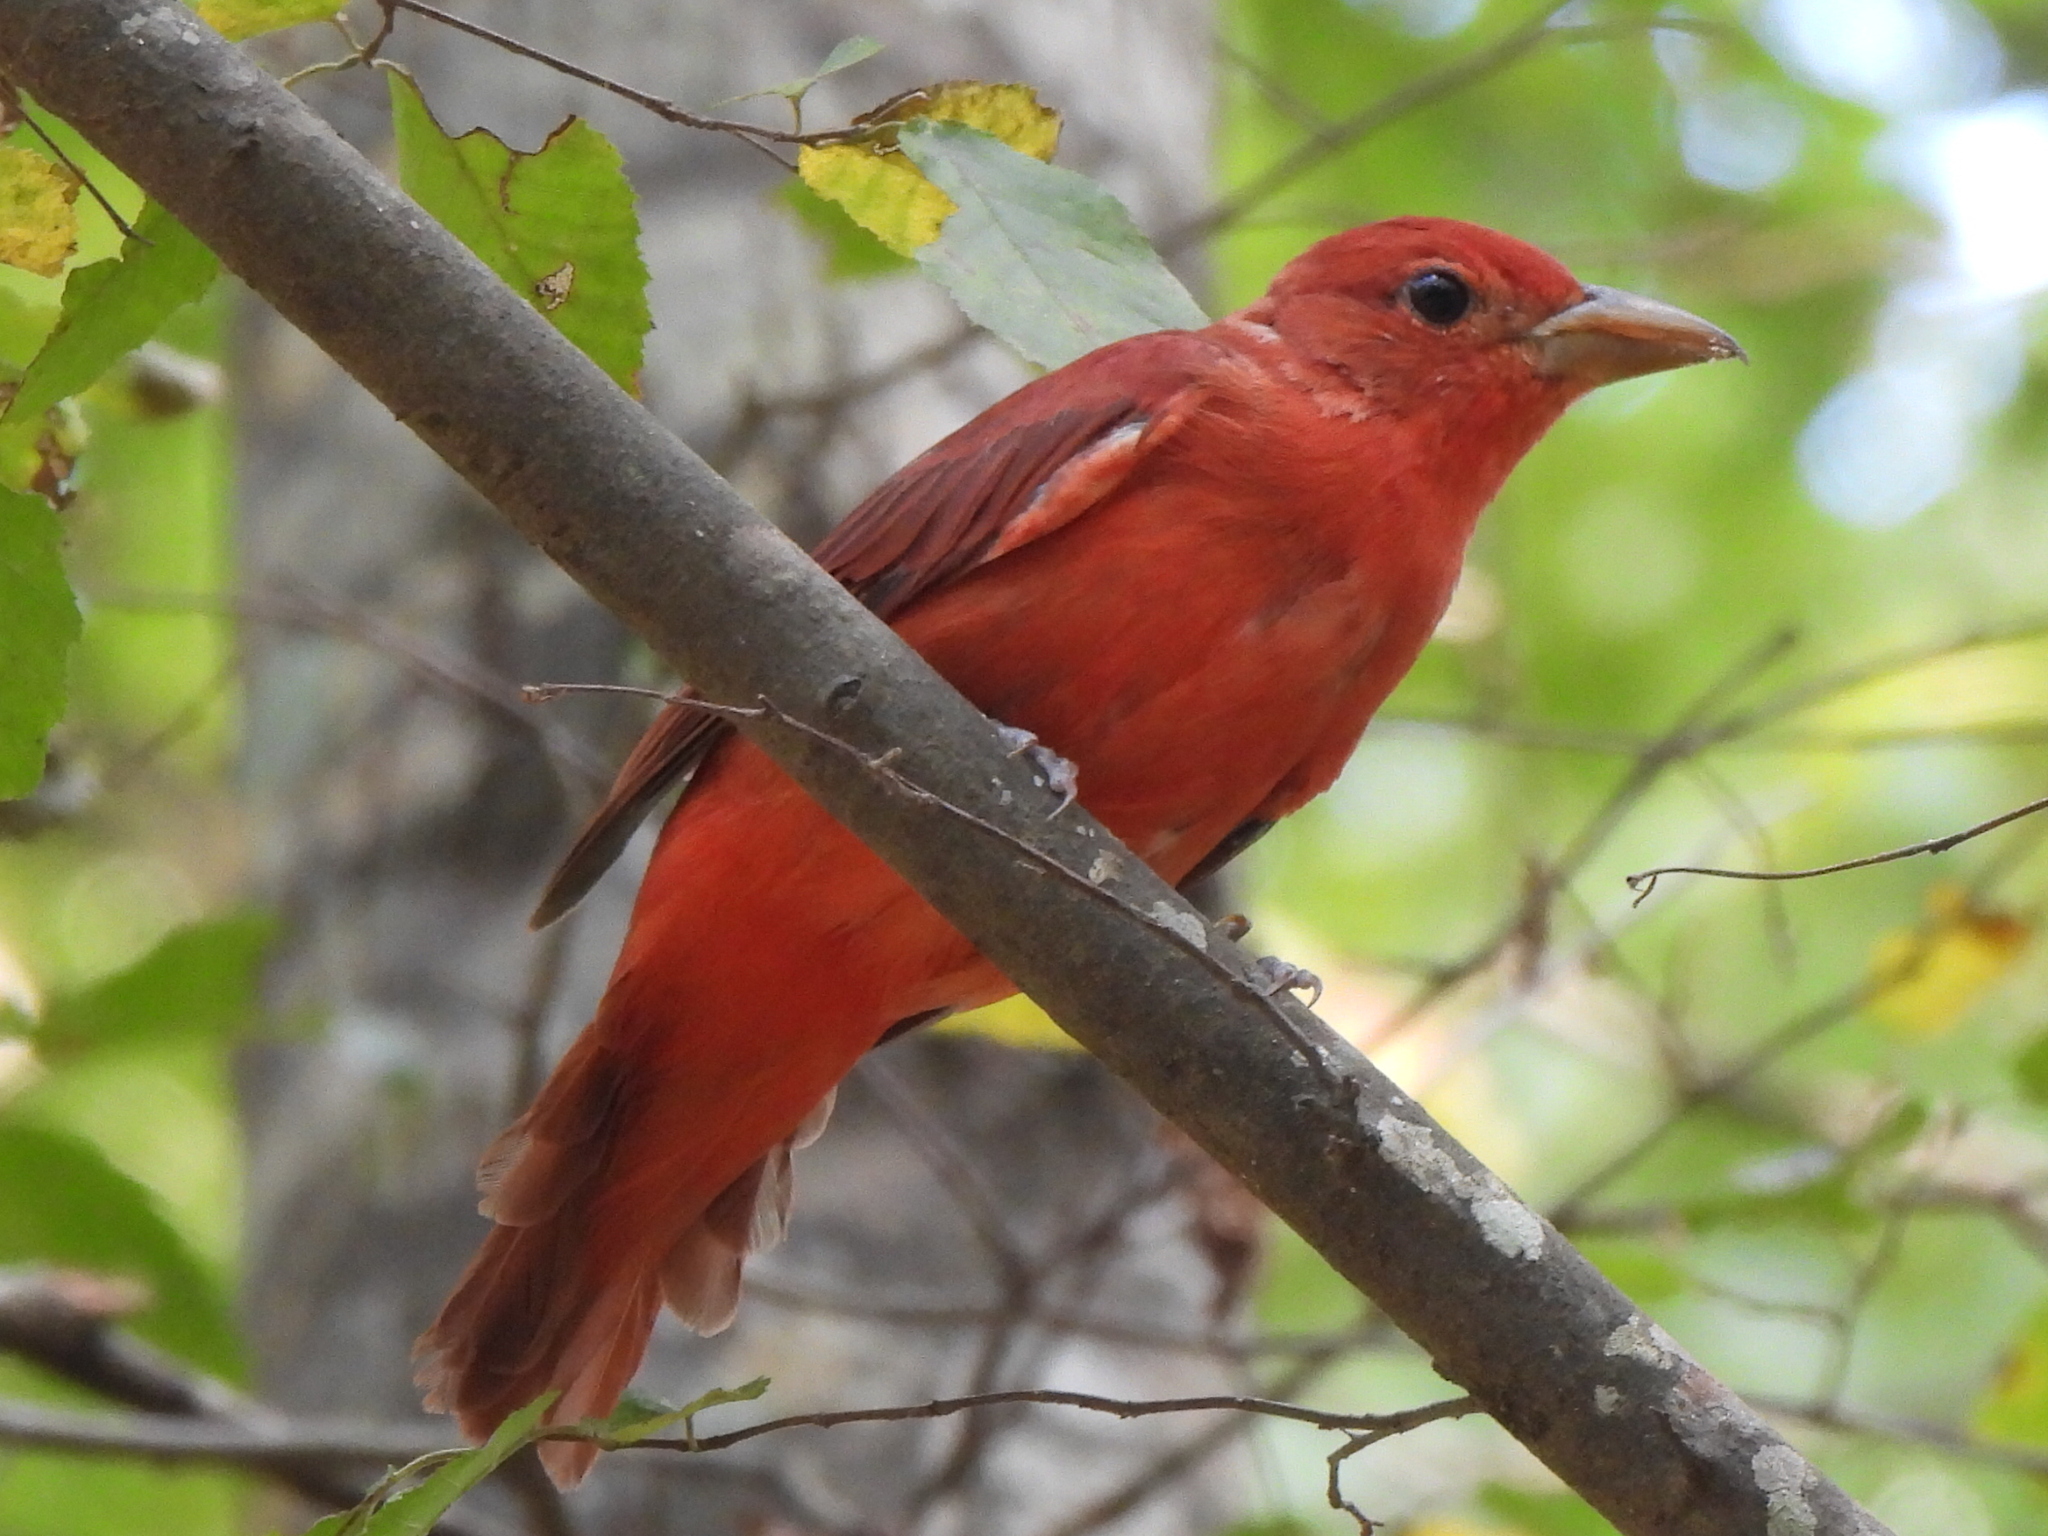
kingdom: Animalia
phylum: Chordata
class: Aves
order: Passeriformes
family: Cardinalidae
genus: Piranga
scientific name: Piranga rubra
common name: Summer tanager
